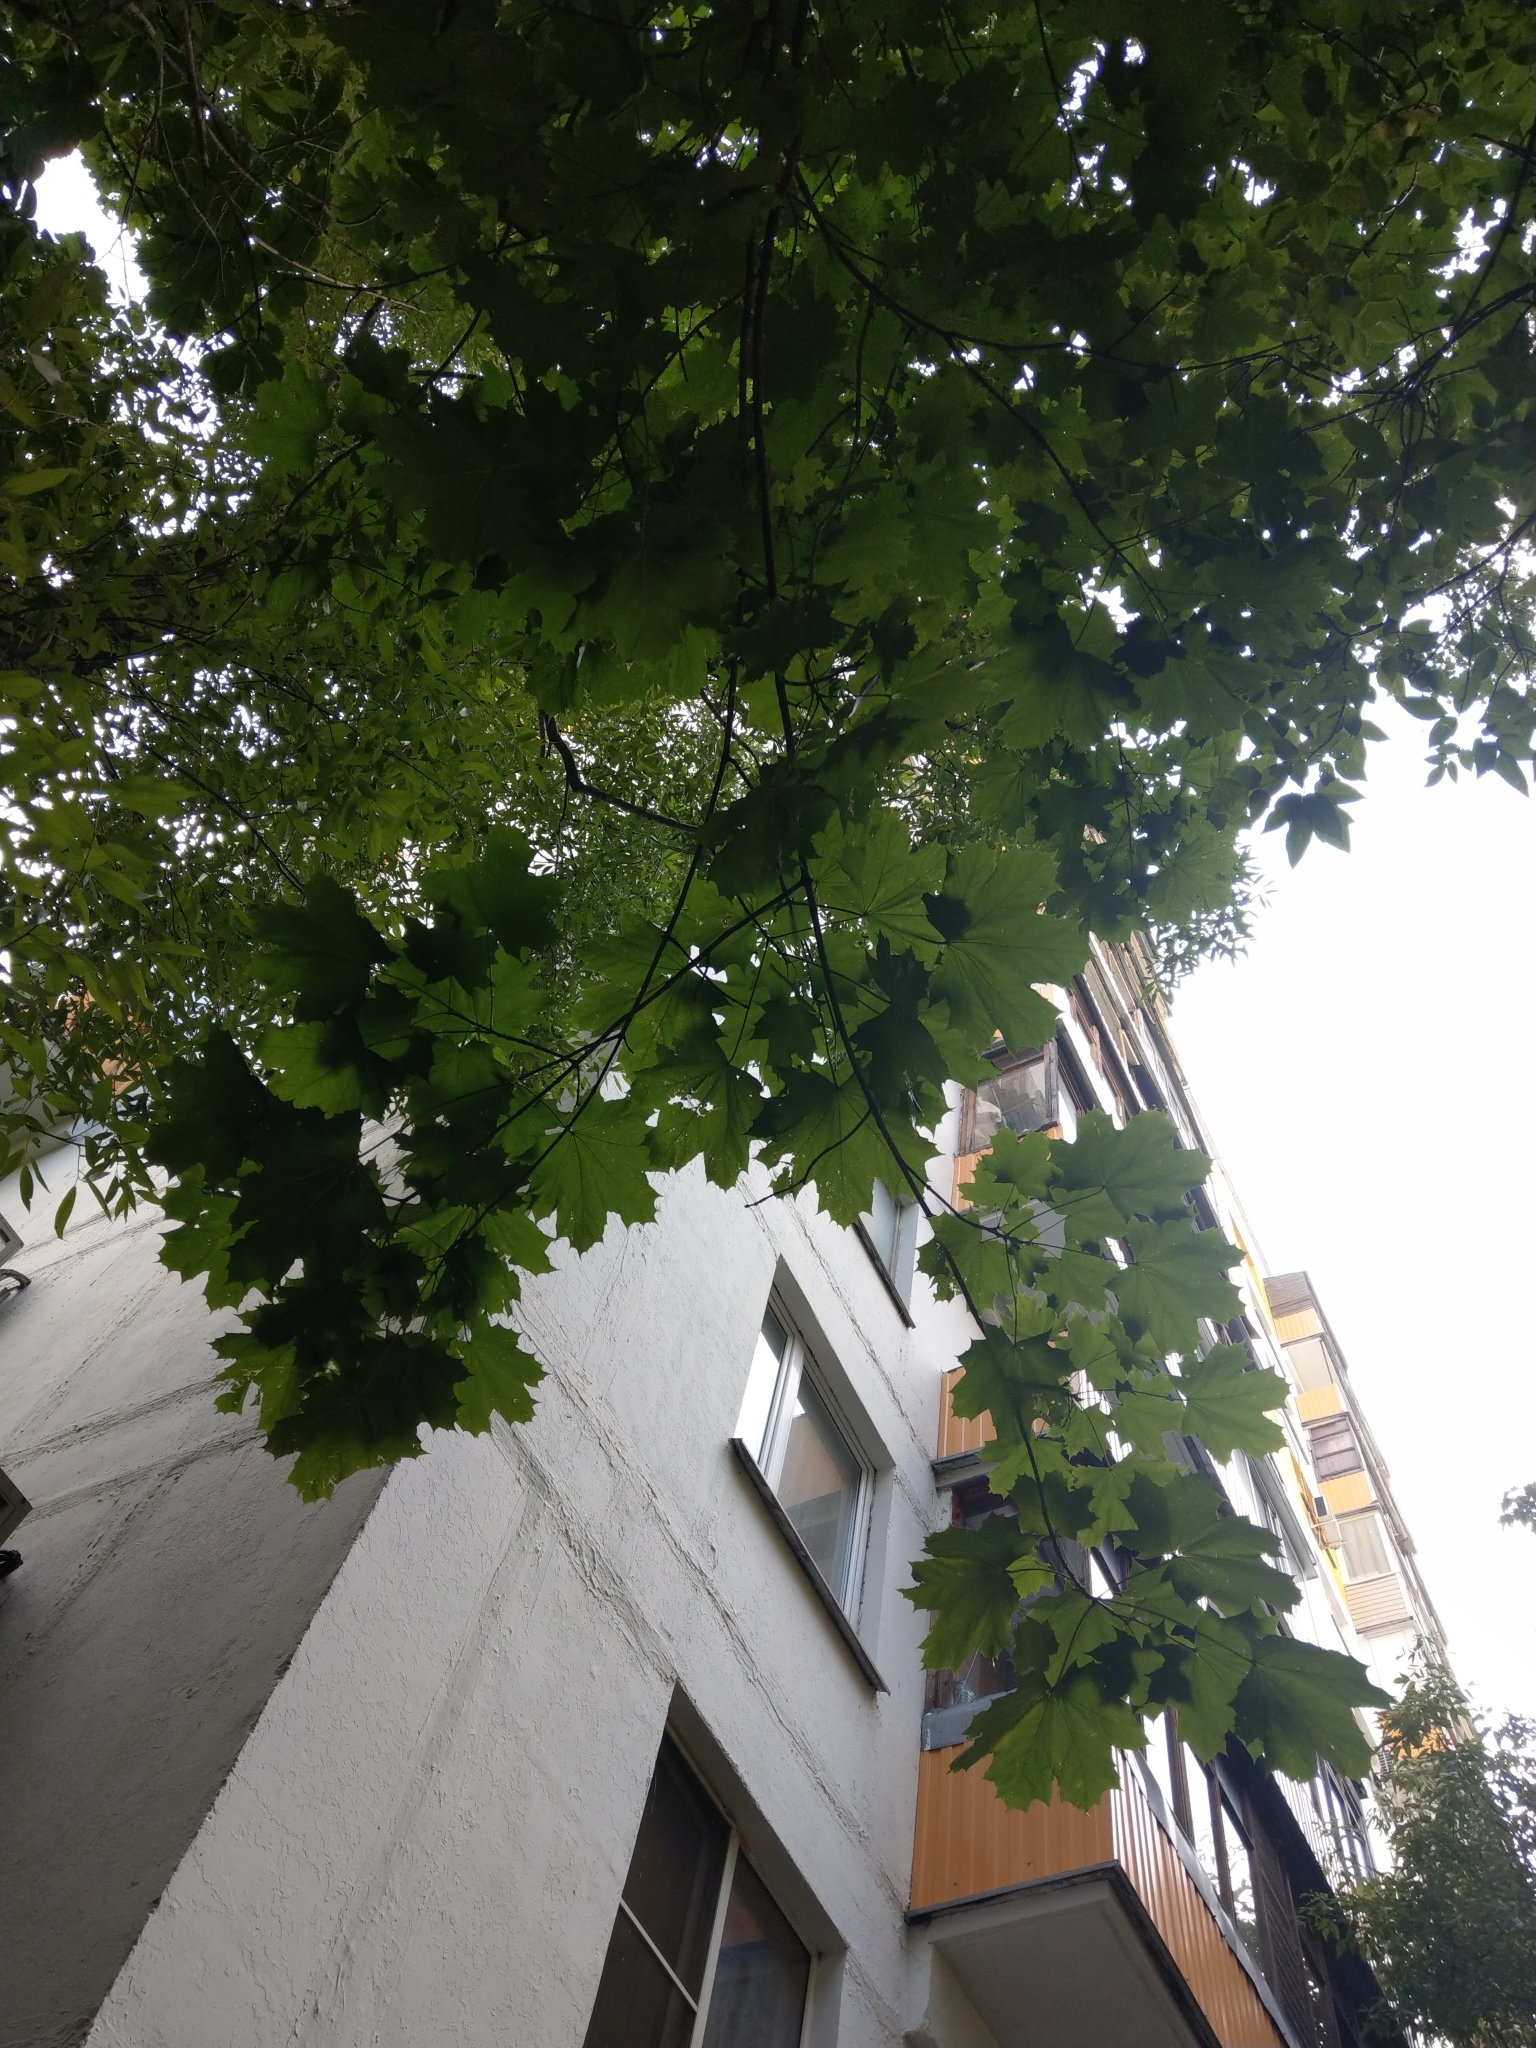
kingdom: Plantae
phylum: Tracheophyta
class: Magnoliopsida
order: Sapindales
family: Sapindaceae
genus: Acer
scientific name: Acer platanoides
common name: Norway maple
